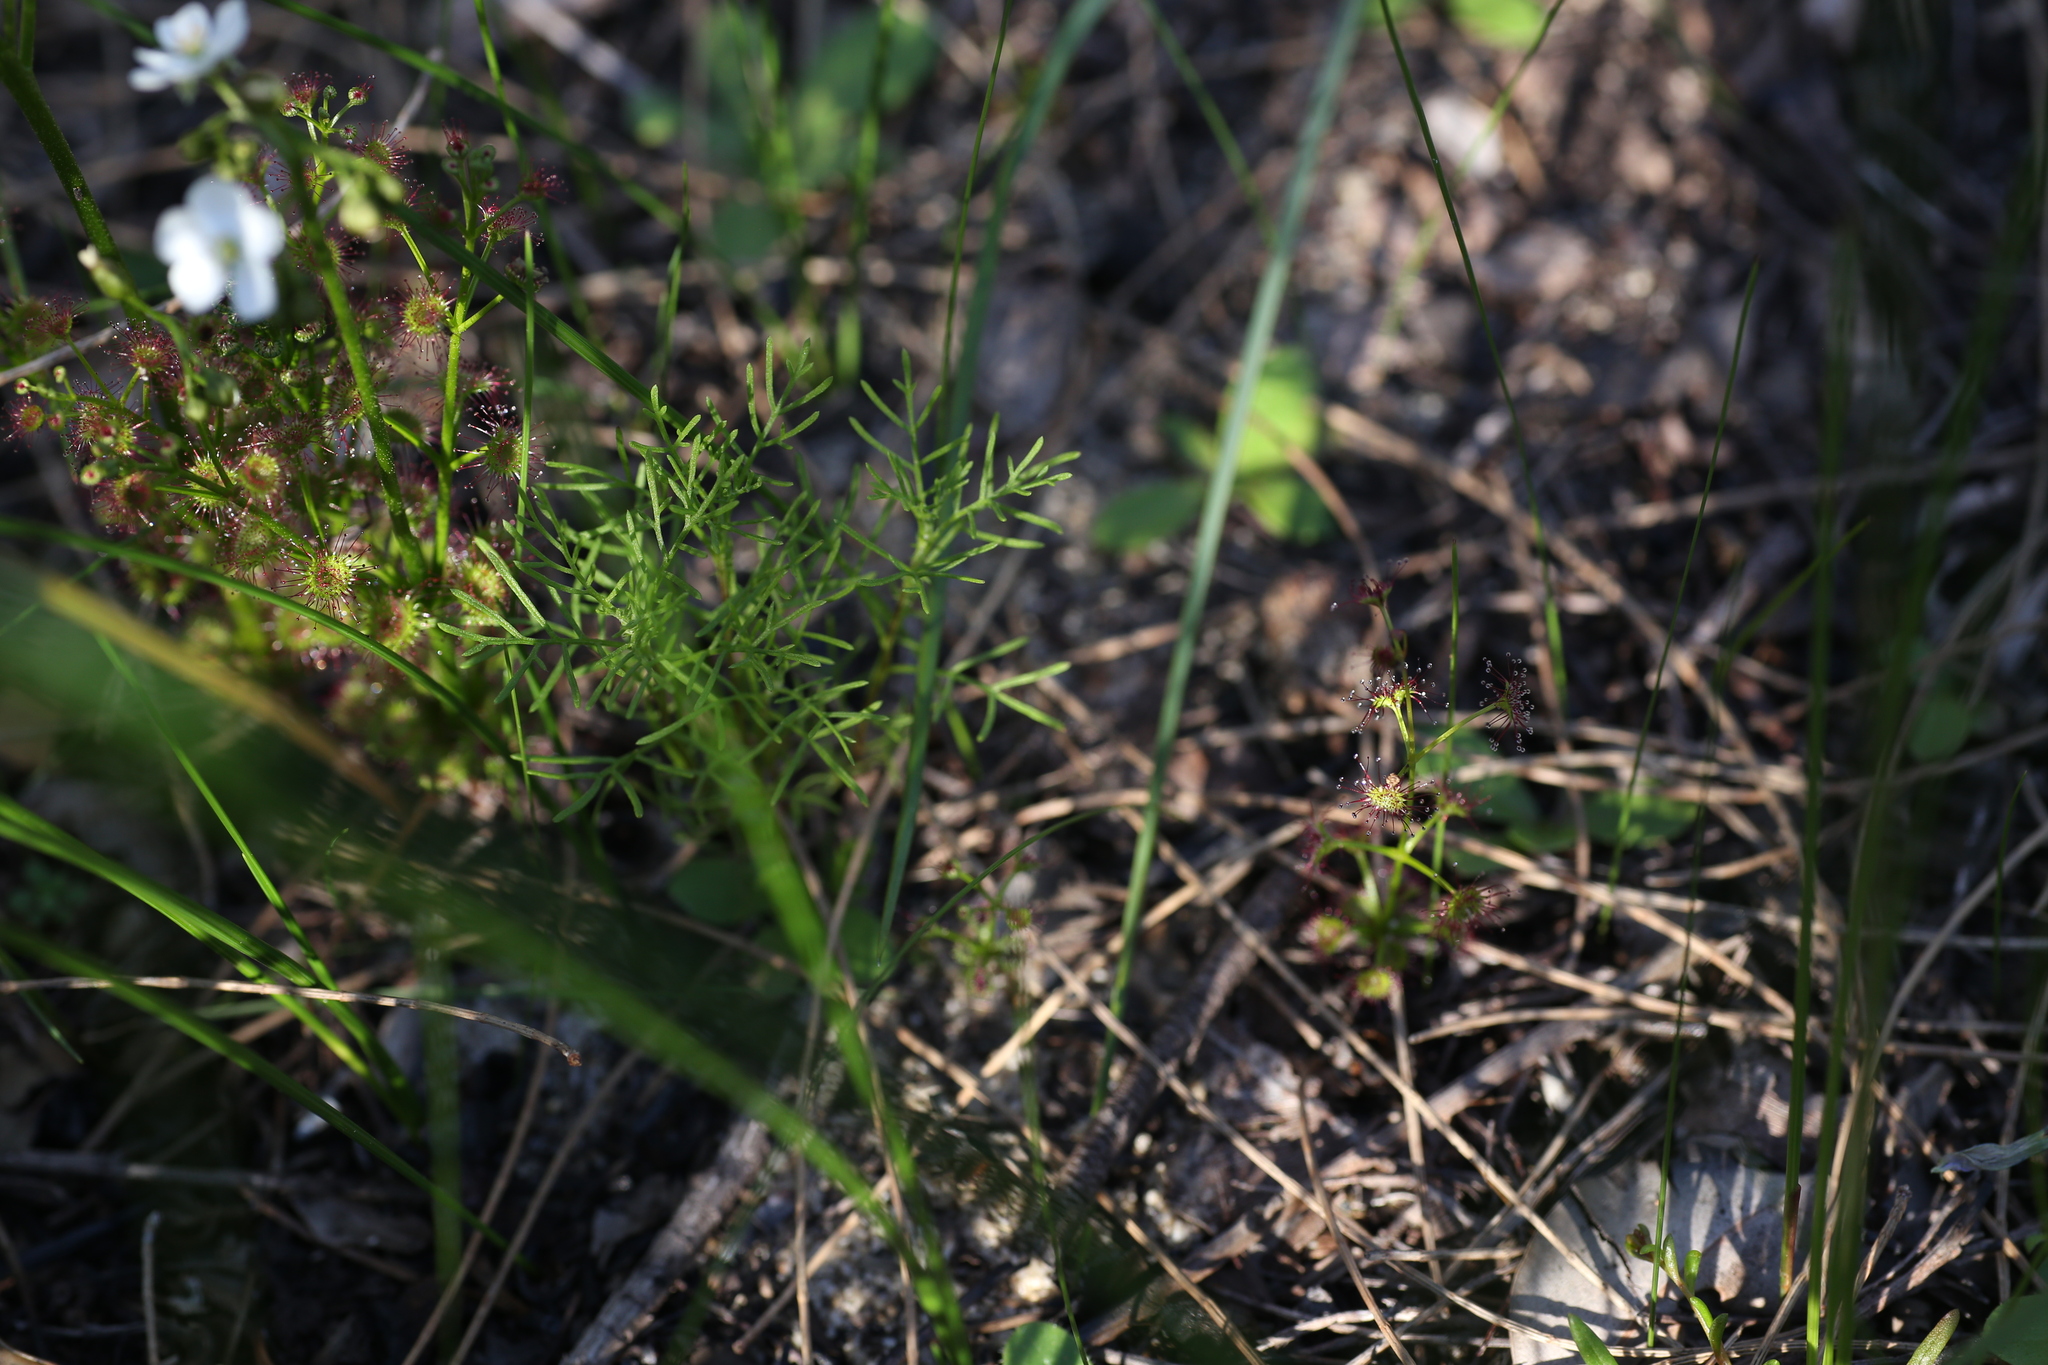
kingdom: Plantae
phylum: Tracheophyta
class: Magnoliopsida
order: Caryophyllales
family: Droseraceae
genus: Drosera
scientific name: Drosera stolonifera
